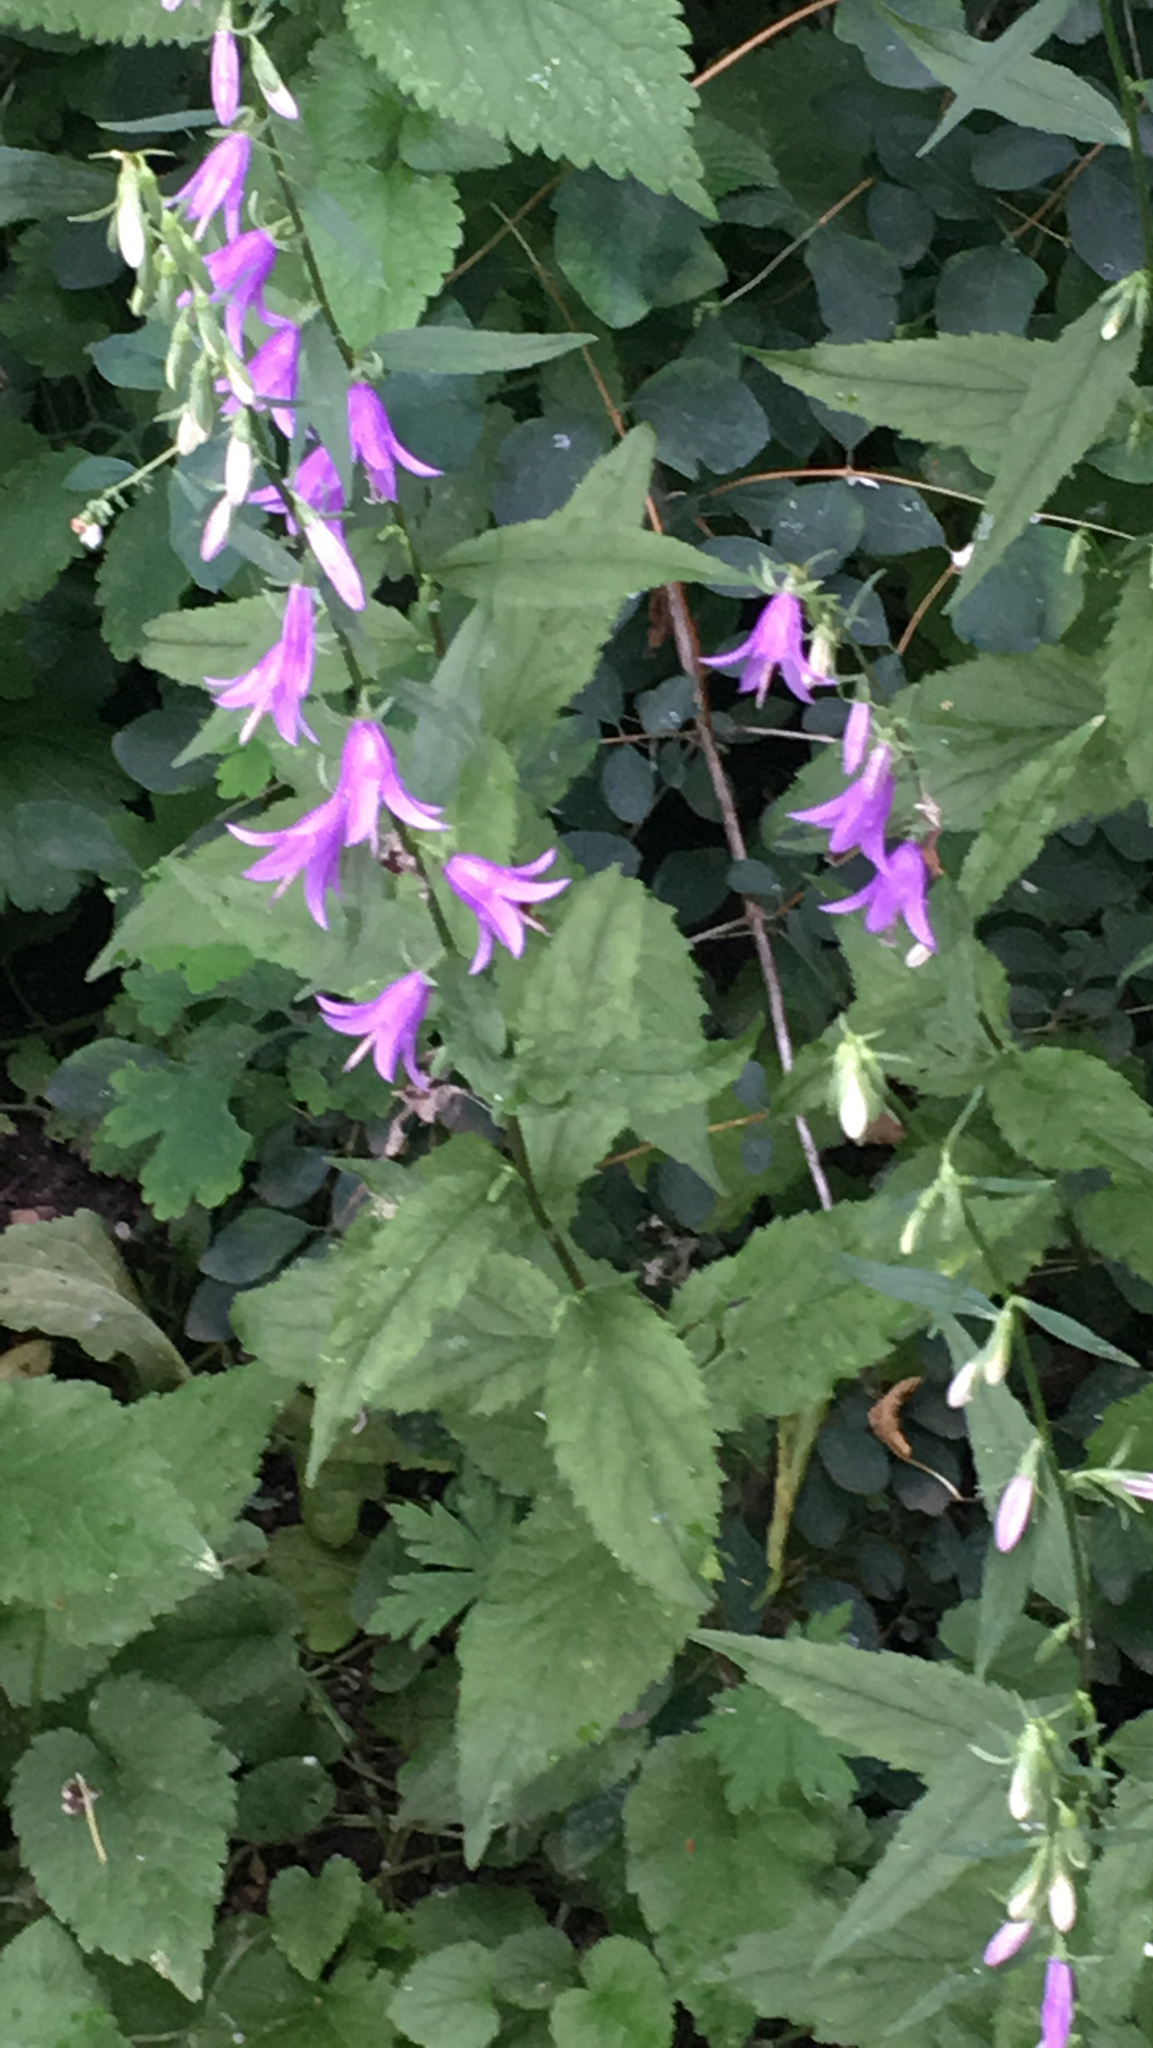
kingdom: Plantae
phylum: Tracheophyta
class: Magnoliopsida
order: Asterales
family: Campanulaceae
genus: Campanula
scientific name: Campanula rapunculoides
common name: Creeping bellflower
